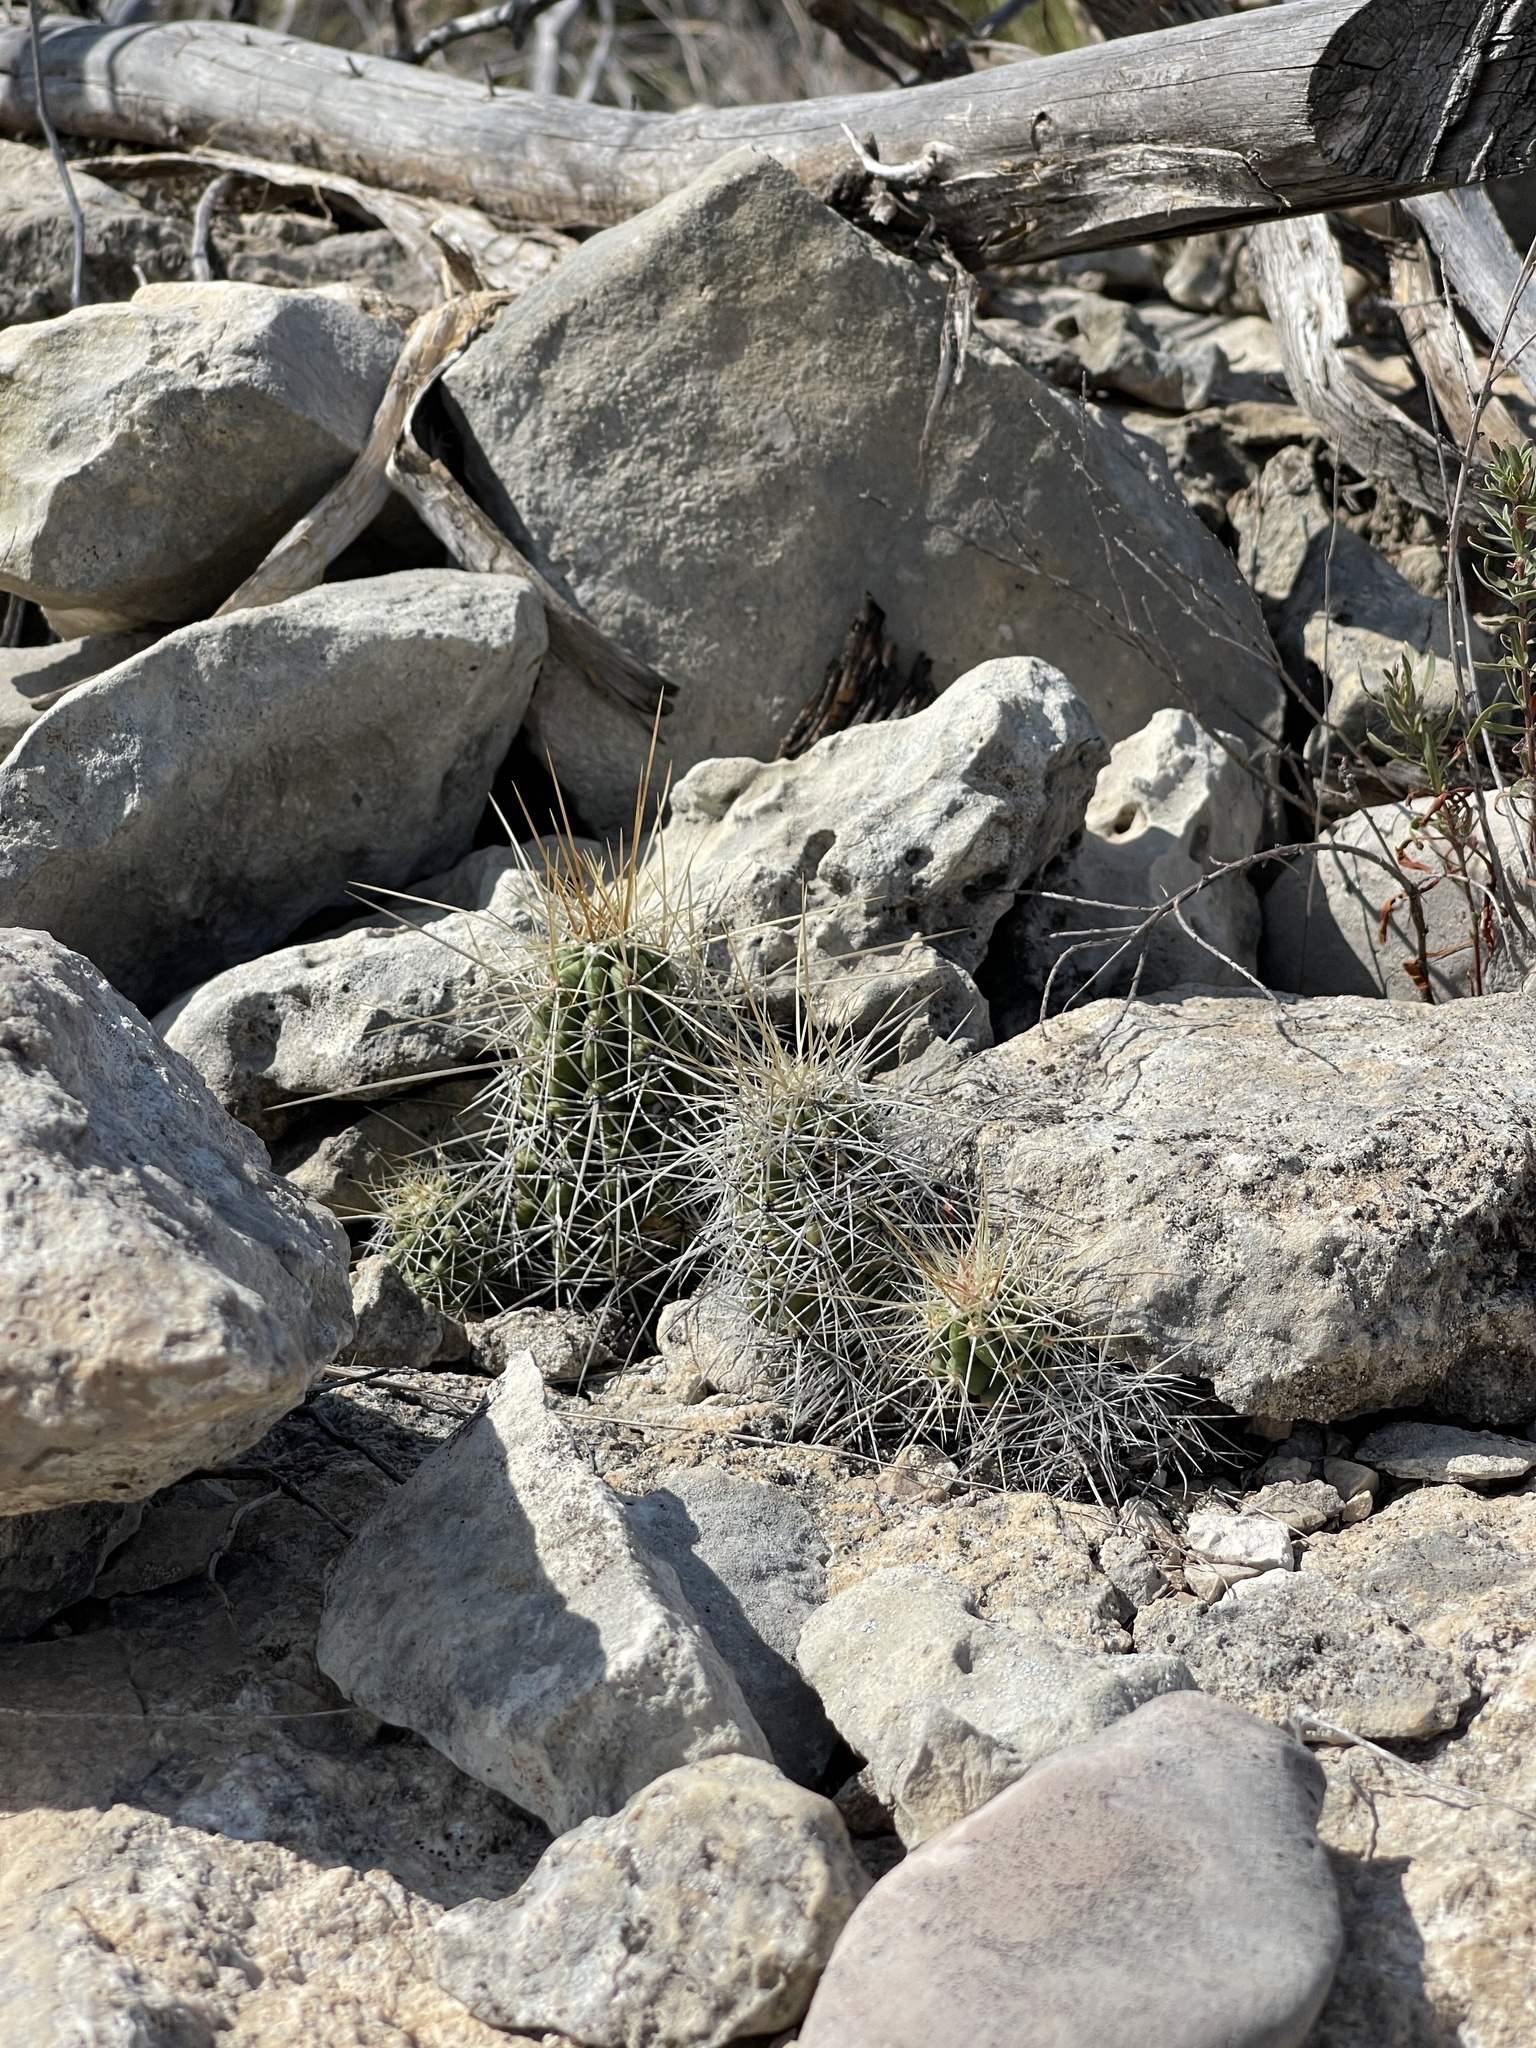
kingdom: Plantae
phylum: Tracheophyta
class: Magnoliopsida
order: Caryophyllales
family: Cactaceae
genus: Echinocereus
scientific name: Echinocereus enneacanthus
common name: Pitaya
